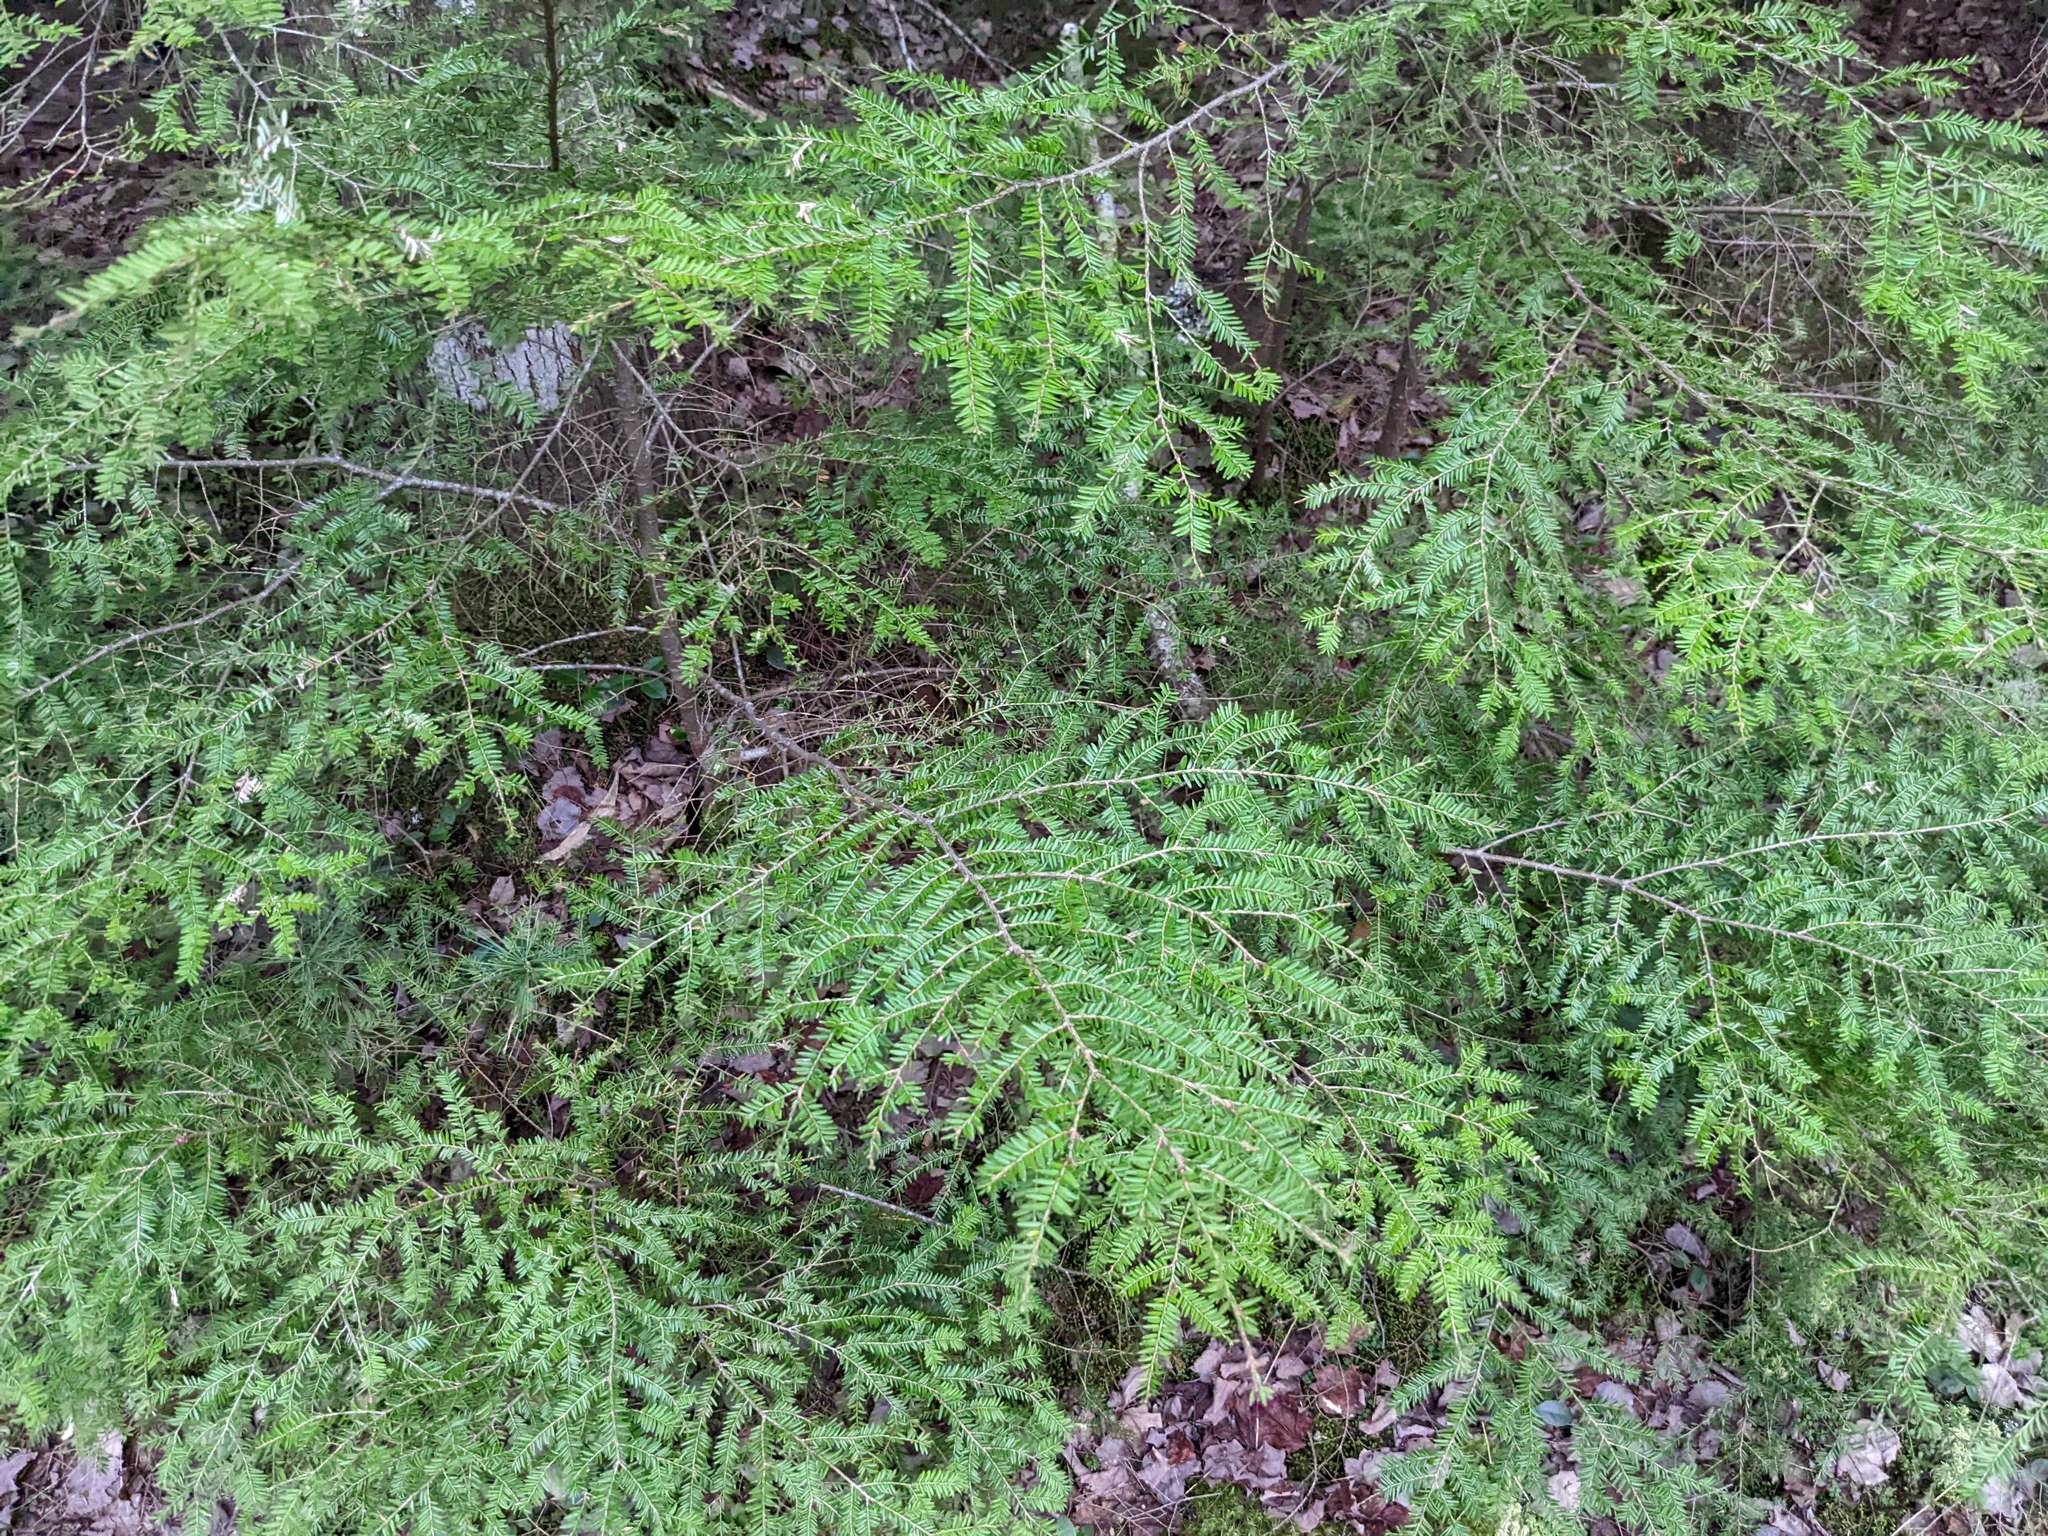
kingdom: Plantae
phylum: Tracheophyta
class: Pinopsida
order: Pinales
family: Pinaceae
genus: Tsuga
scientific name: Tsuga canadensis
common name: Eastern hemlock
